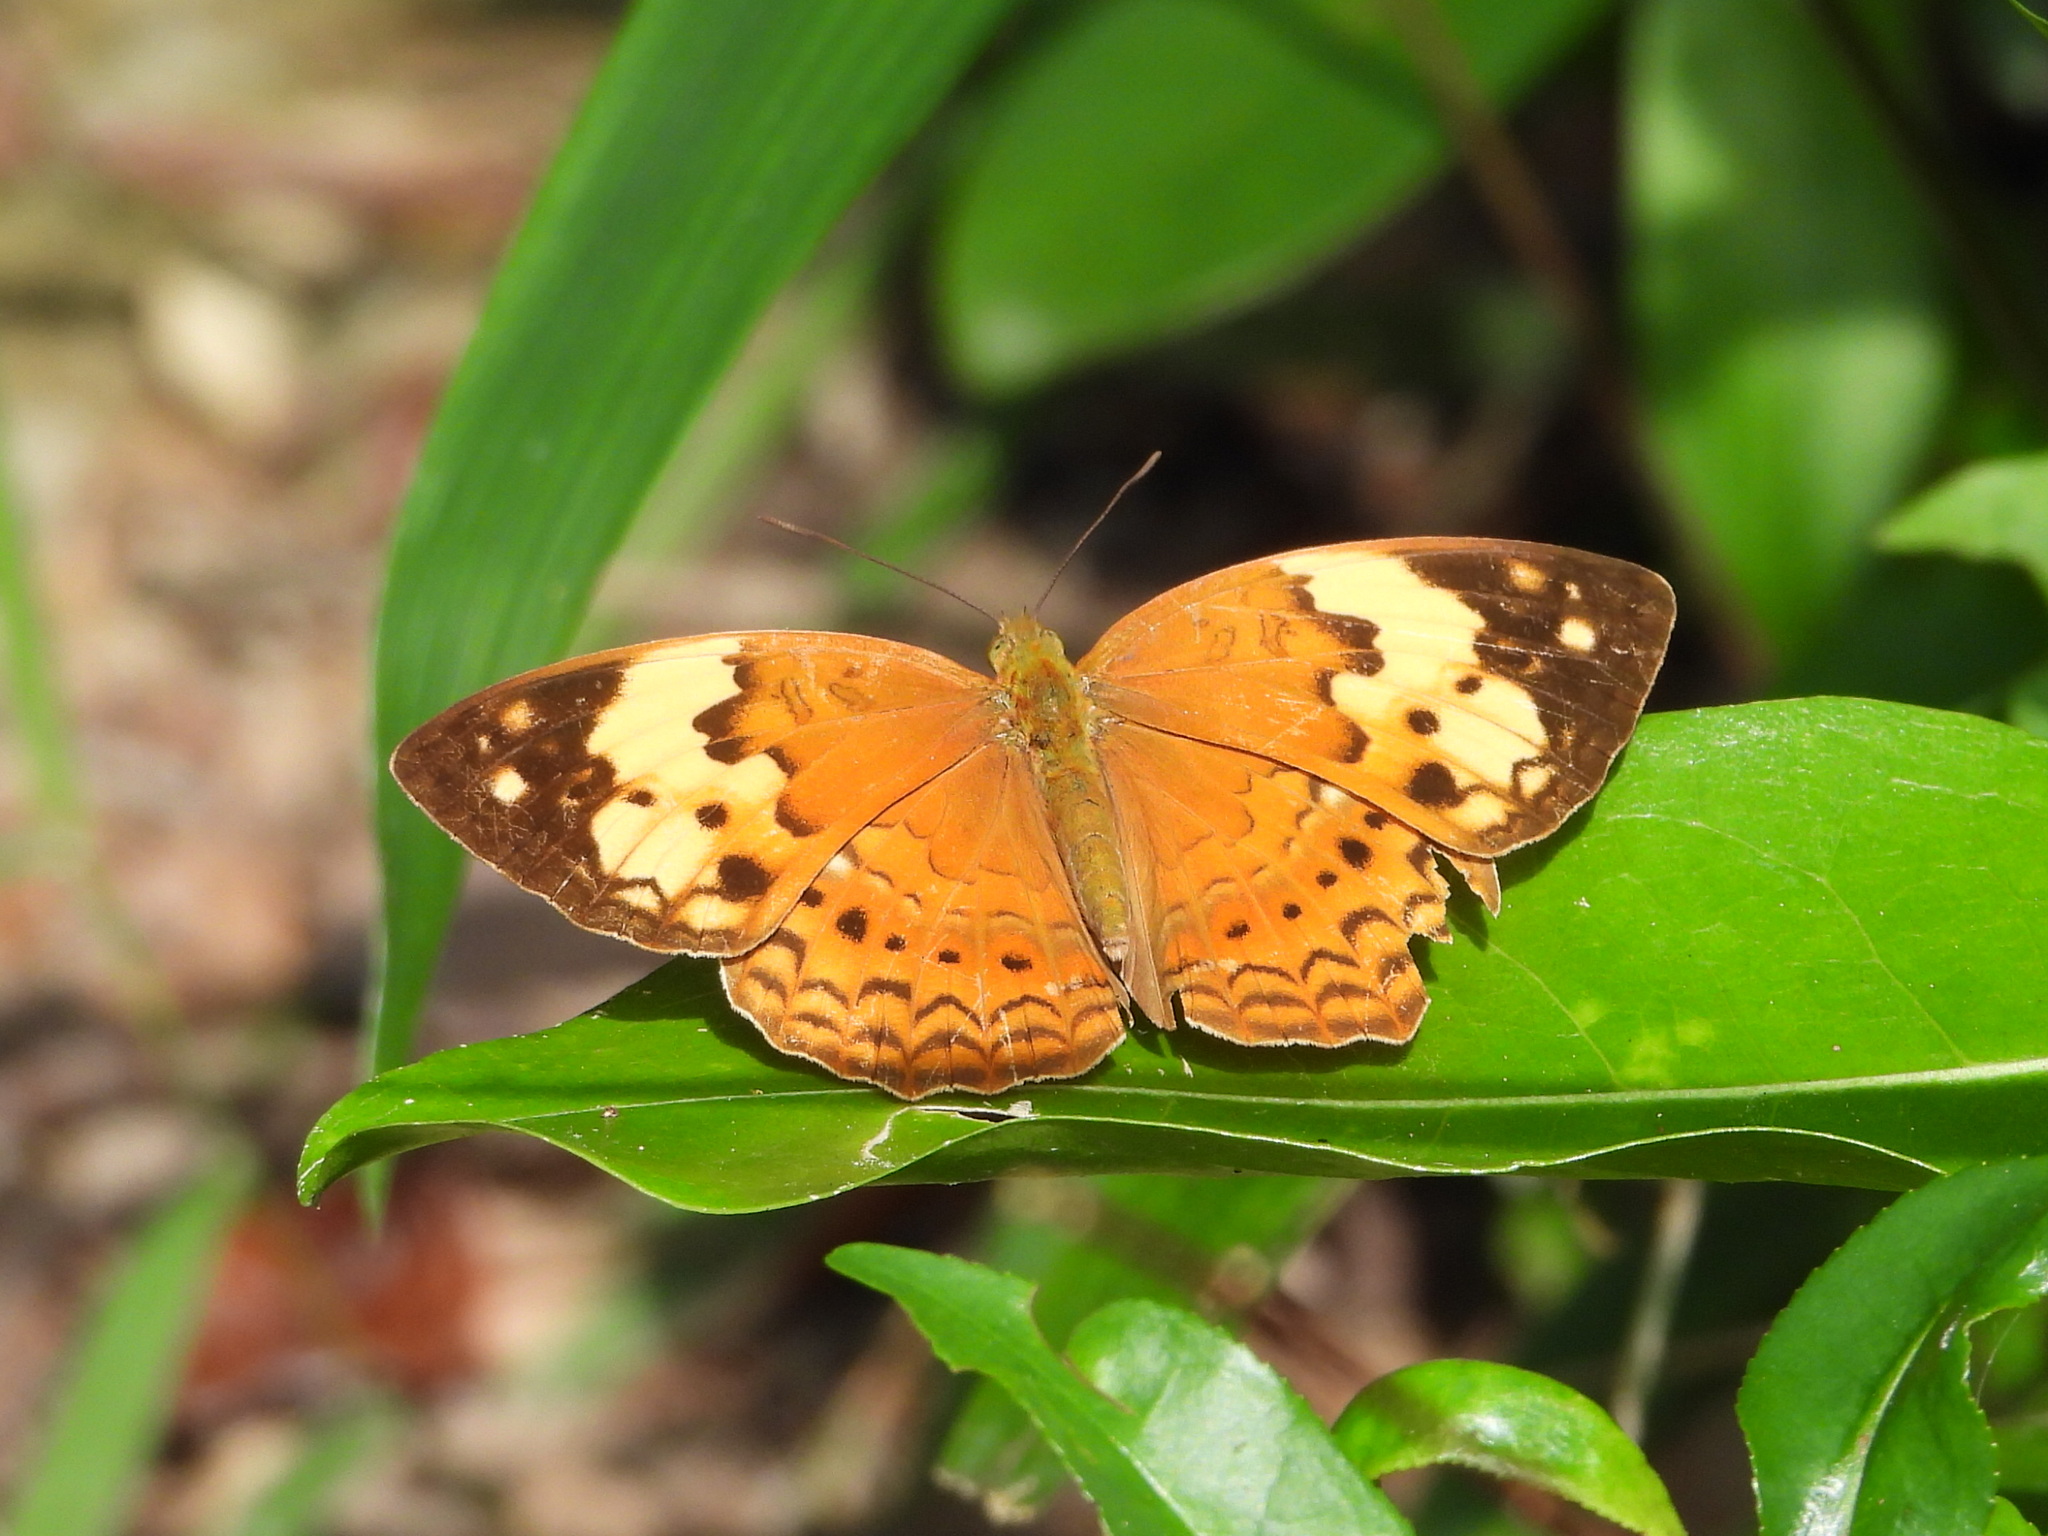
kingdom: Animalia
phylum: Arthropoda
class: Insecta
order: Lepidoptera
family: Nymphalidae
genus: Cupha
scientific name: Cupha erymanthis
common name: Rustic
